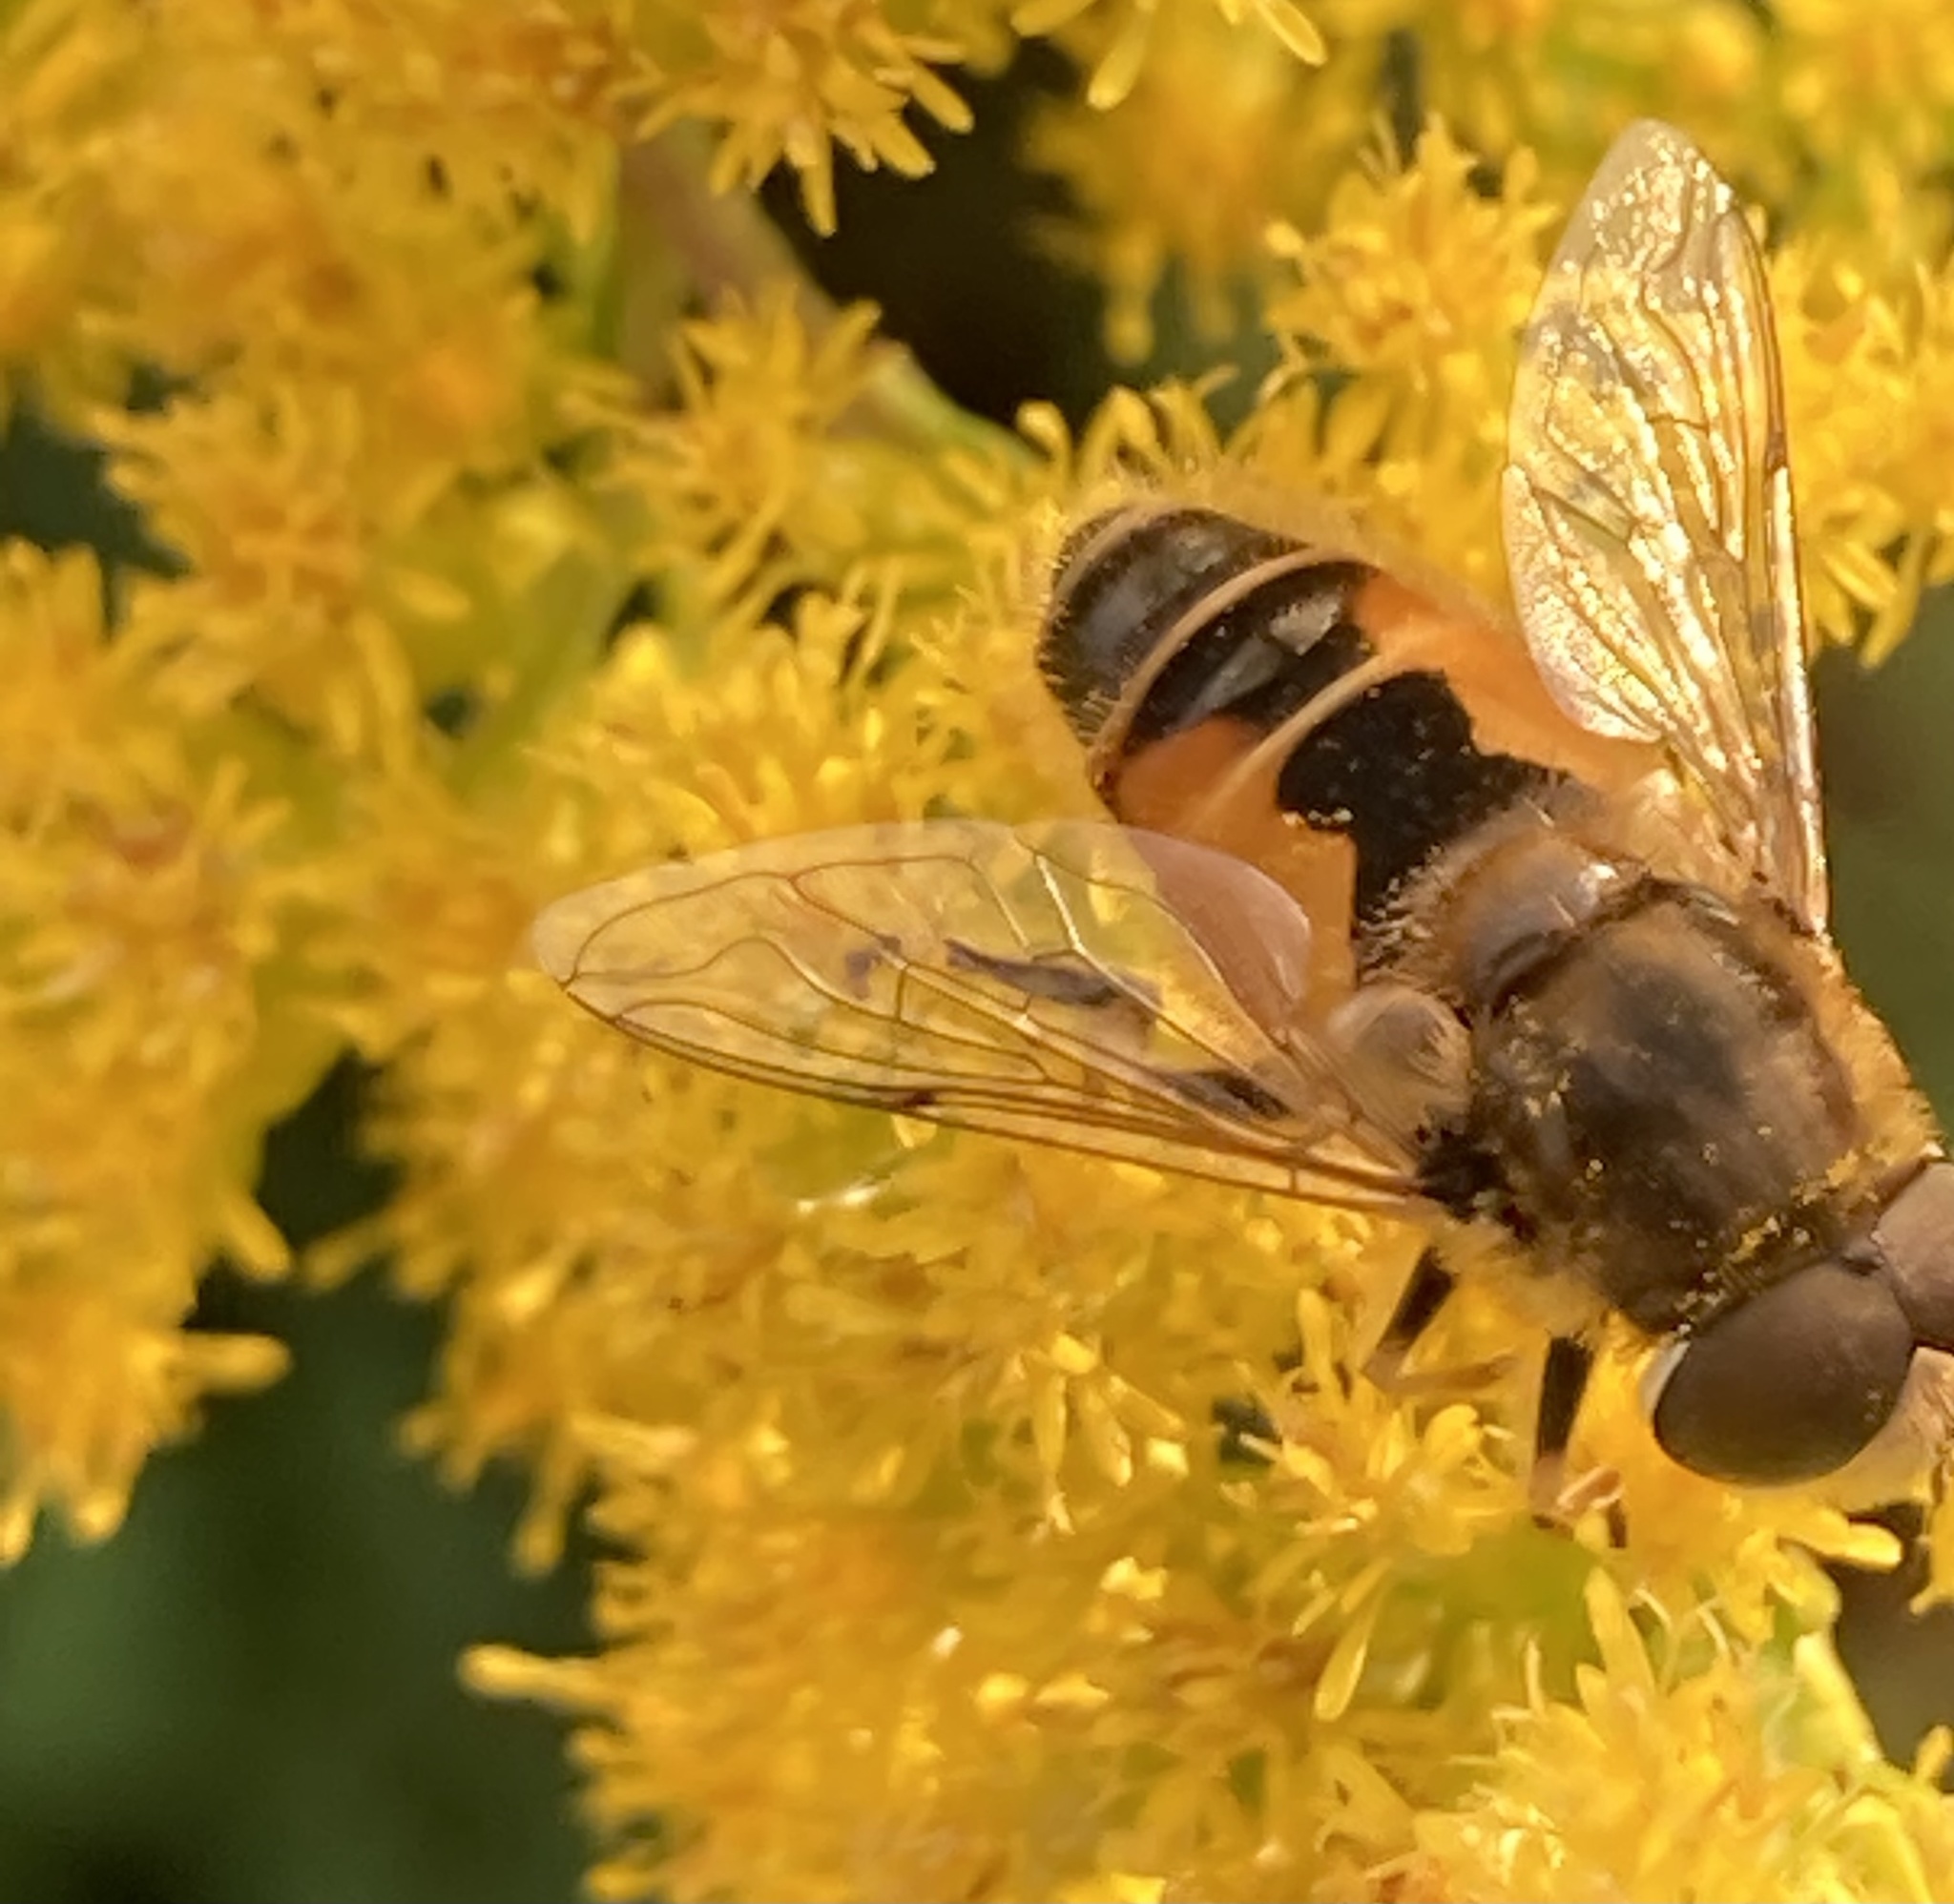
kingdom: Animalia
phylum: Arthropoda
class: Insecta
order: Diptera
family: Syrphidae
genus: Eristalis
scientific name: Eristalis arbustorum
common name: Hover fly
